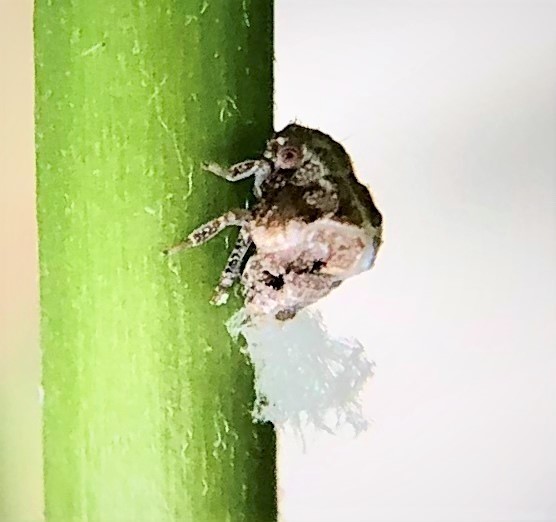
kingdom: Animalia
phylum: Arthropoda
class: Insecta
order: Hemiptera
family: Acanaloniidae
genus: Acanalonia
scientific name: Acanalonia bivittata
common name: Two-striped planthopper
